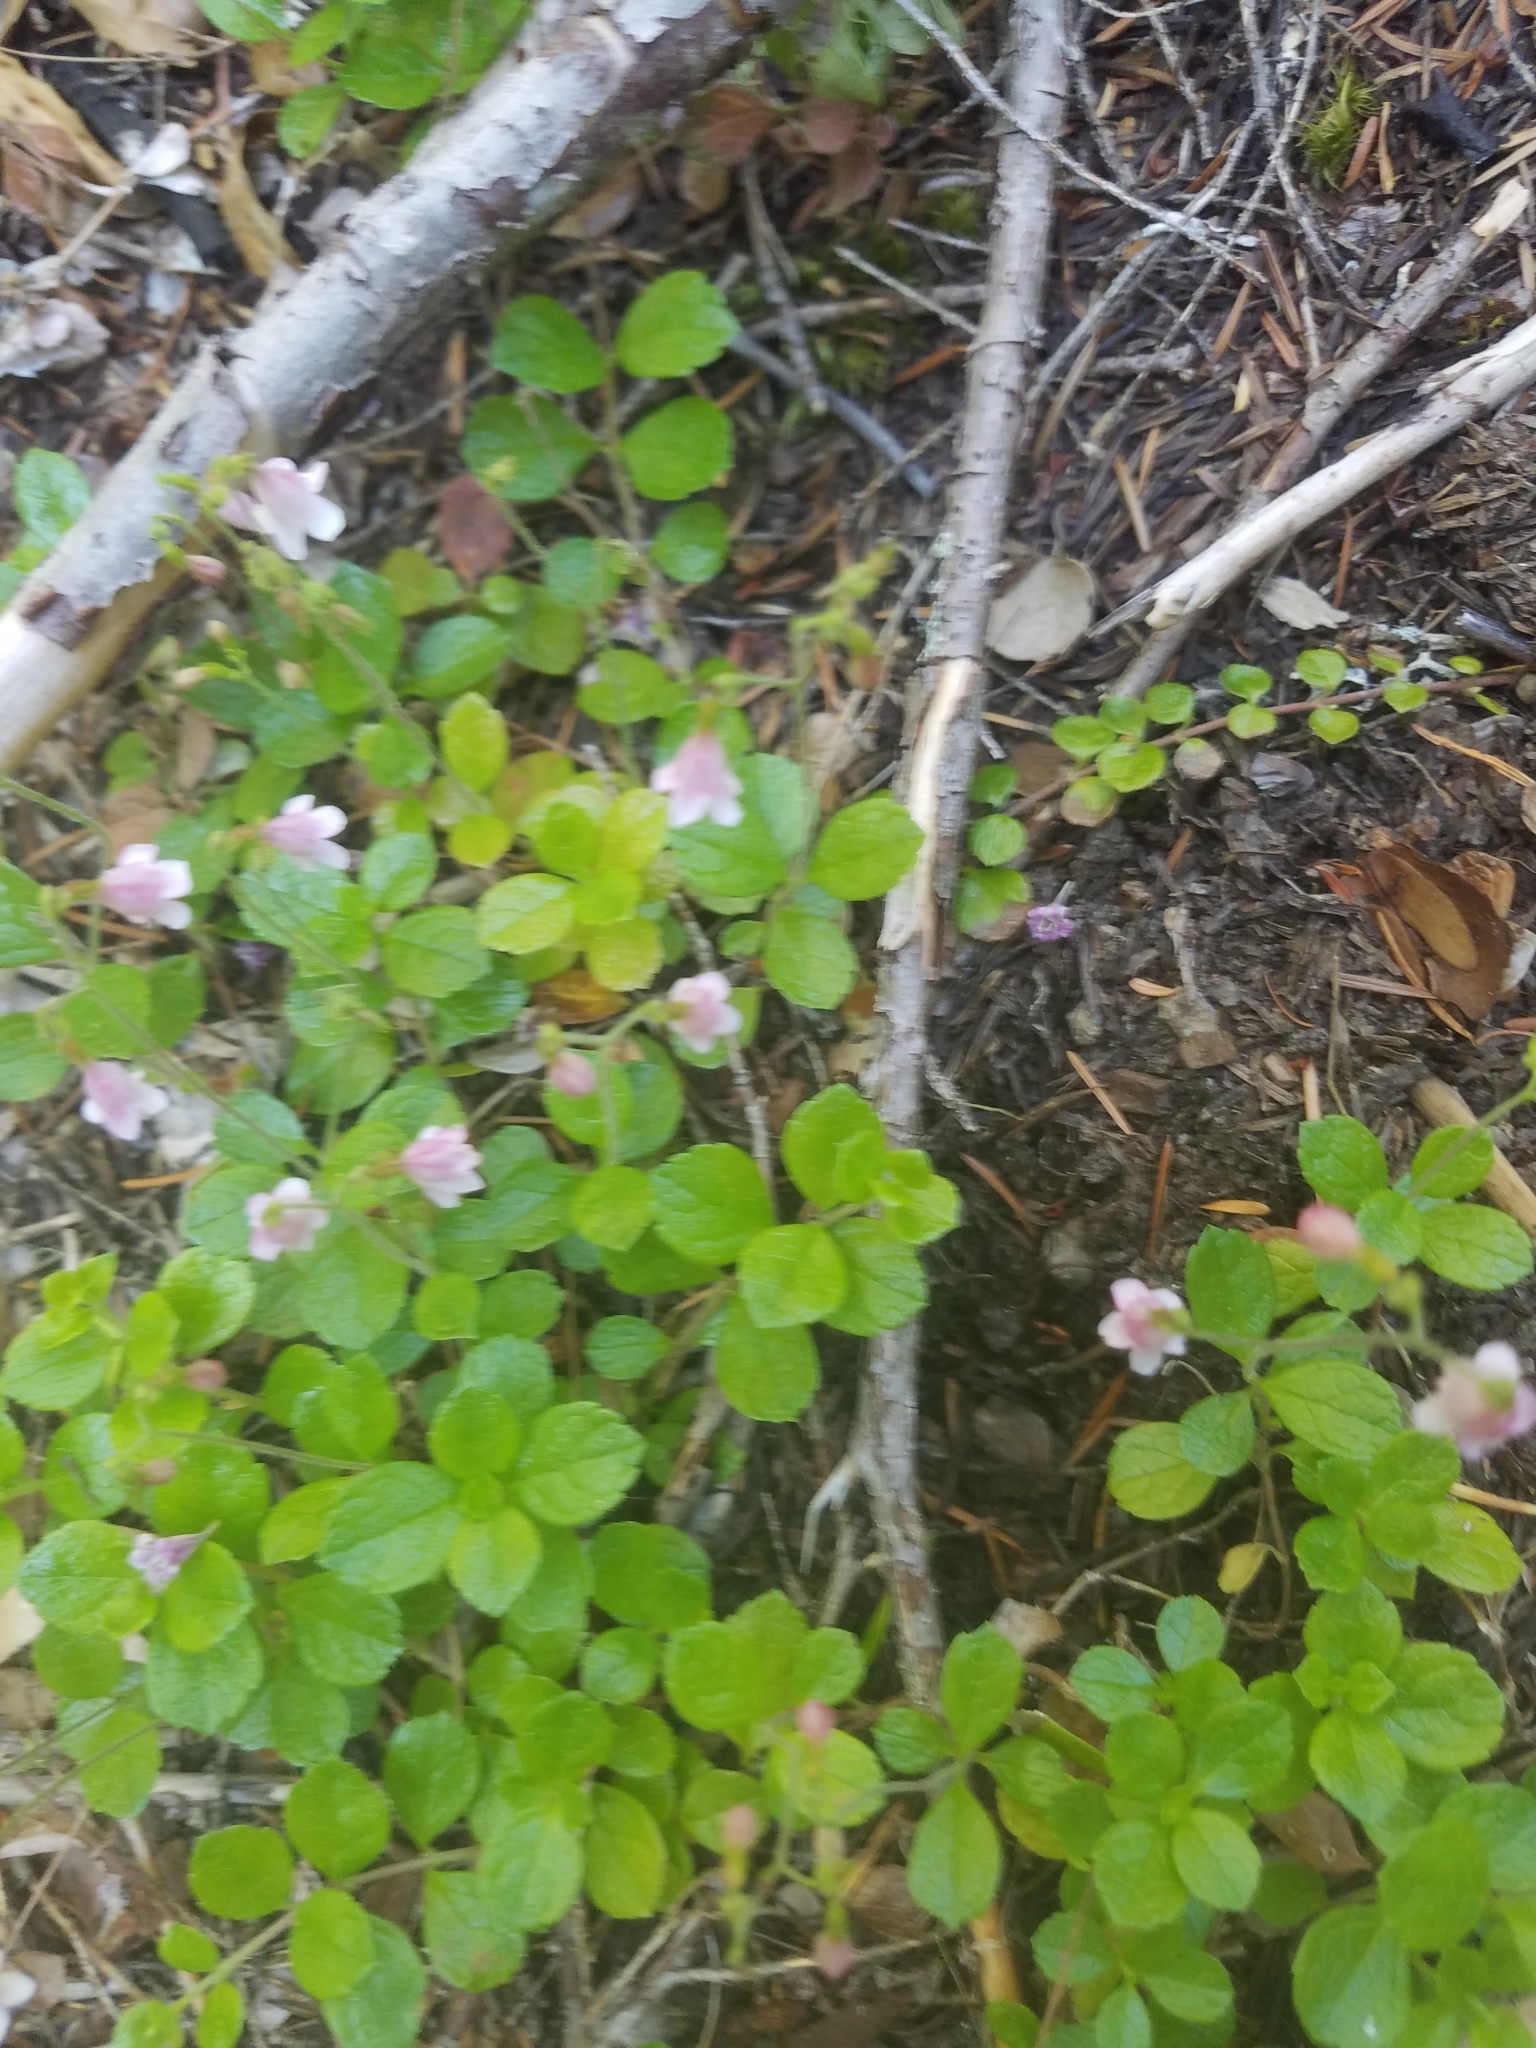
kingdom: Plantae
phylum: Tracheophyta
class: Magnoliopsida
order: Dipsacales
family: Caprifoliaceae
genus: Linnaea
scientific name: Linnaea borealis
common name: Twinflower
